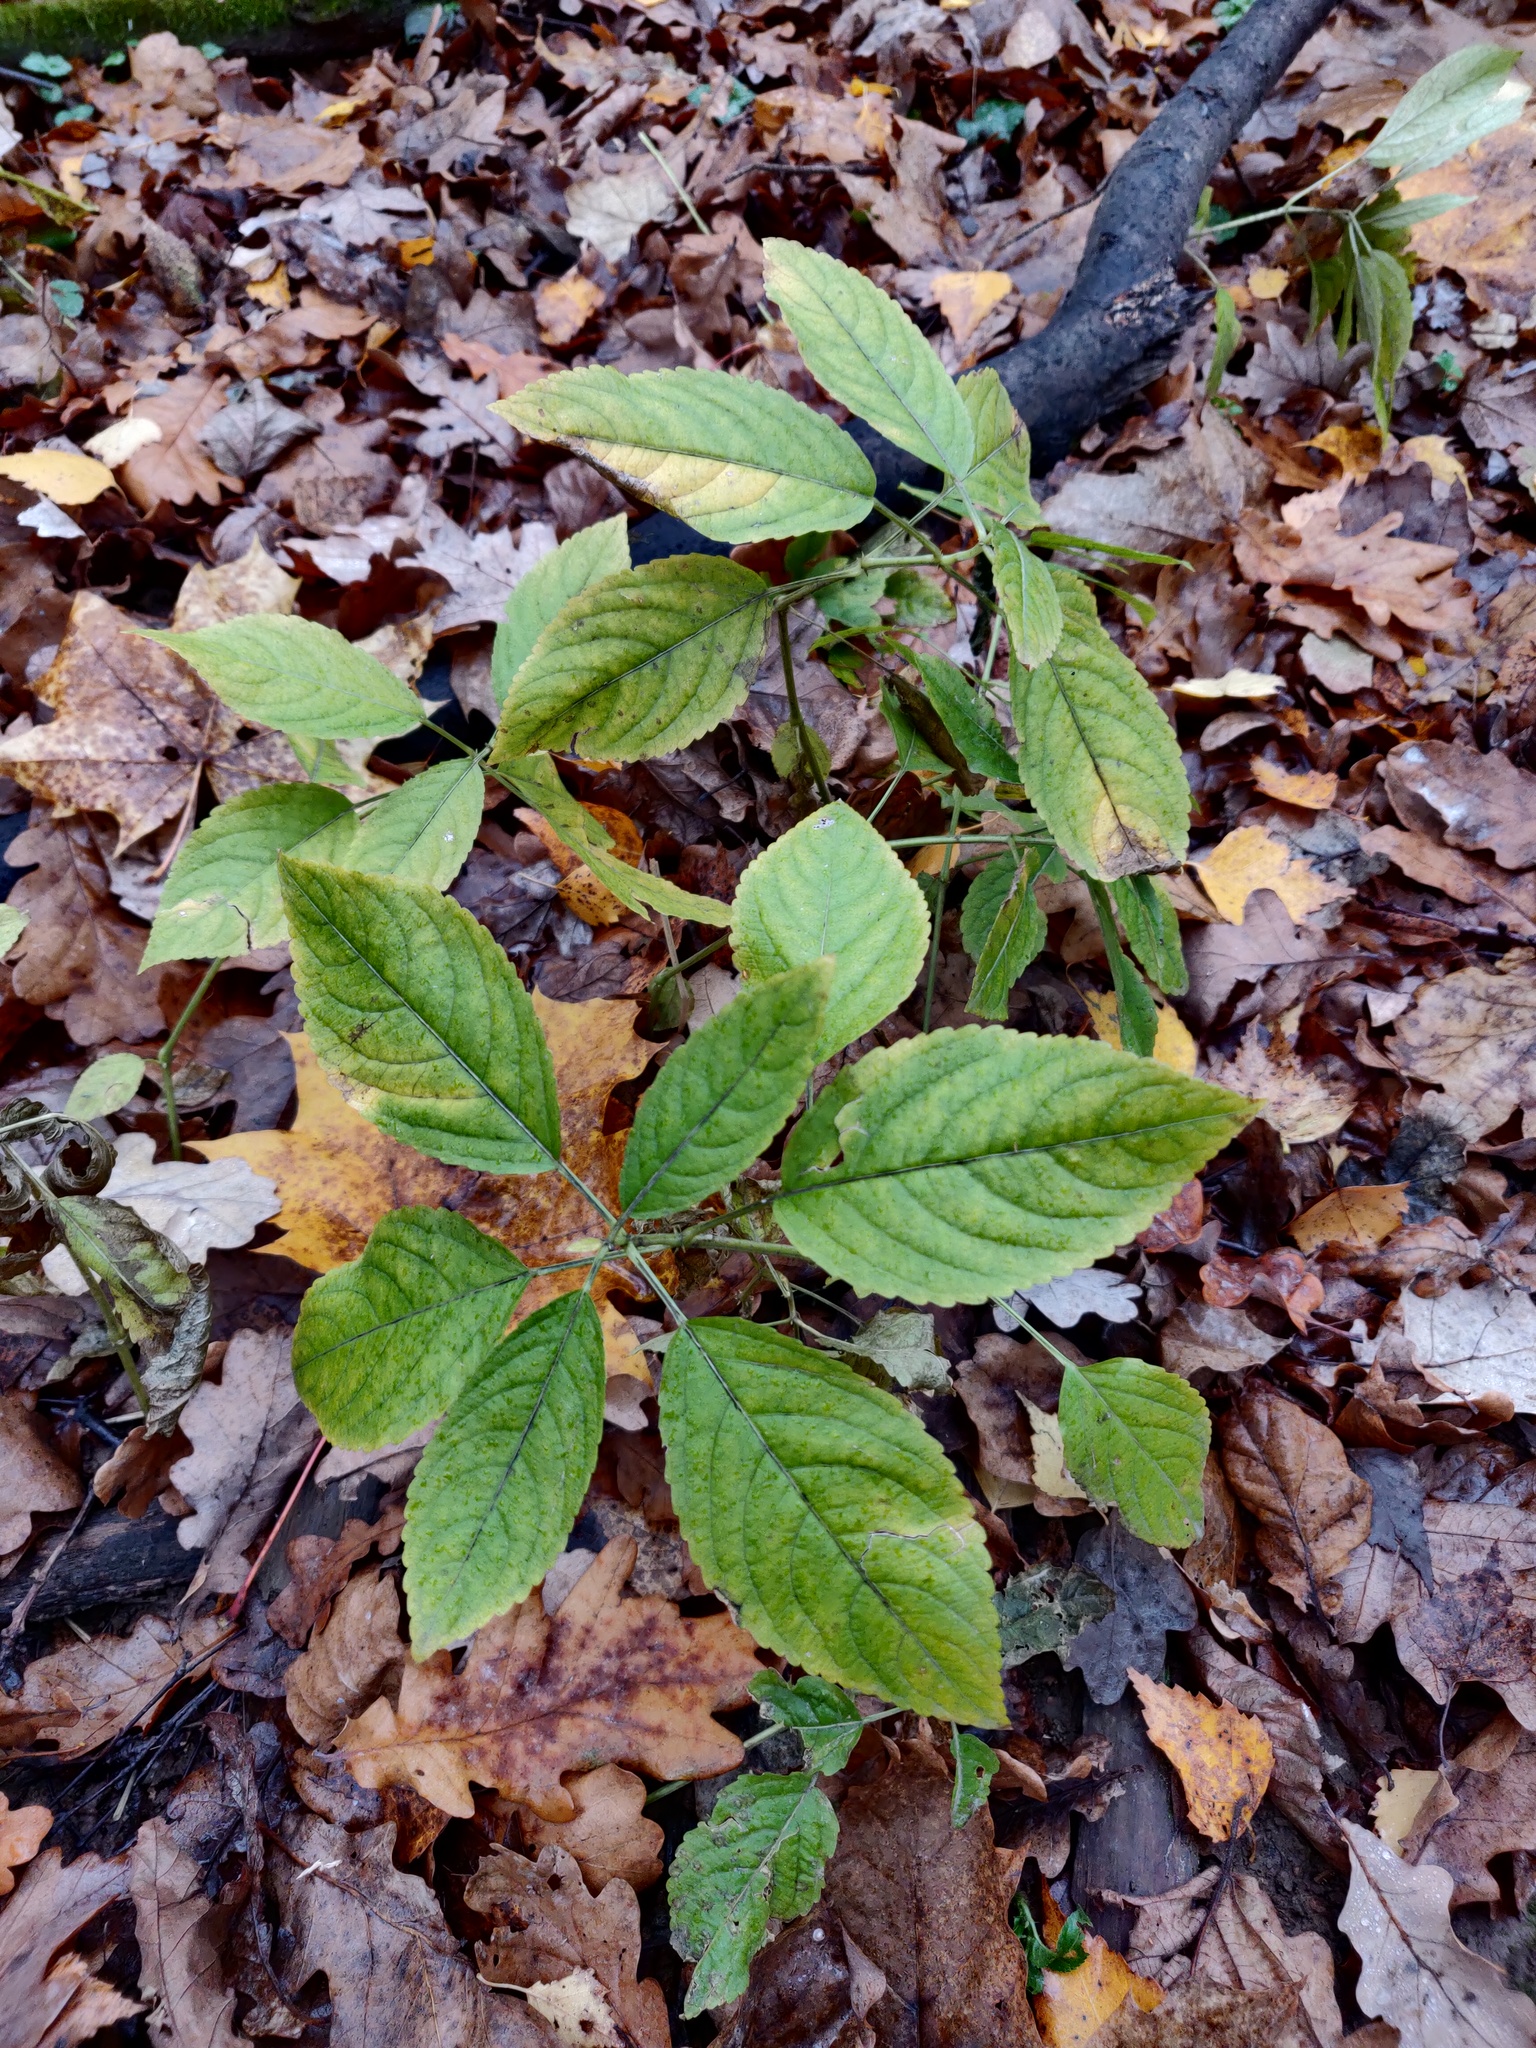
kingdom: Plantae
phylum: Tracheophyta
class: Magnoliopsida
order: Malpighiales
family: Euphorbiaceae
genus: Mercurialis
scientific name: Mercurialis perennis
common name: Dog mercury
